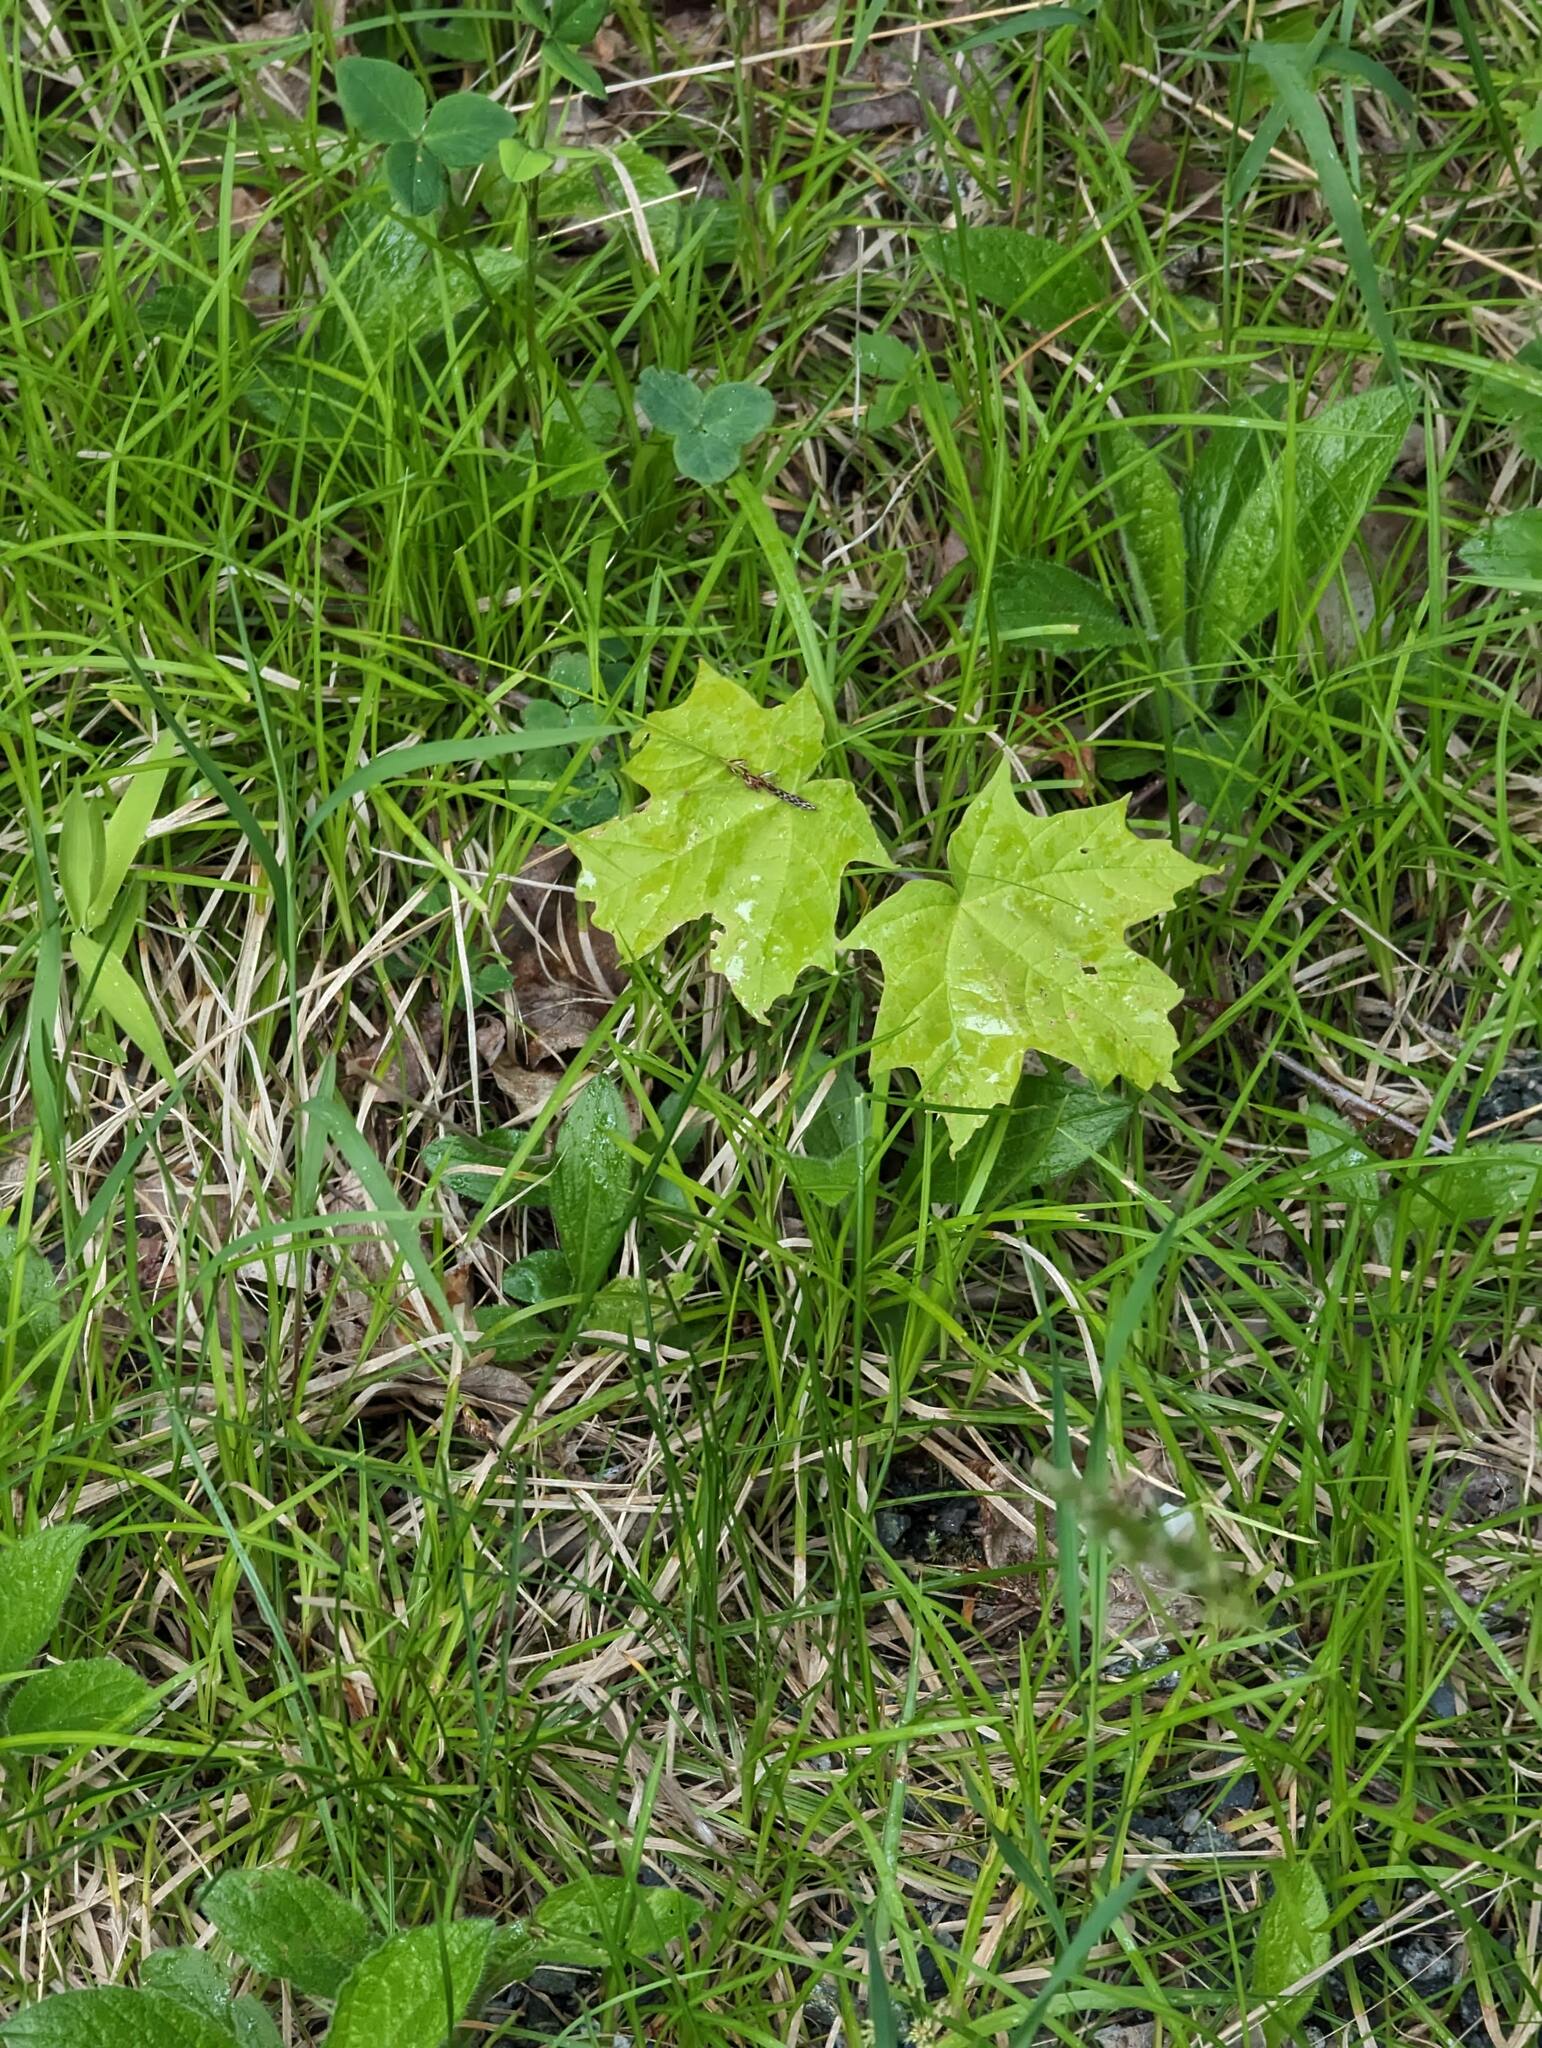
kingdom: Plantae
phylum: Tracheophyta
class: Magnoliopsida
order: Sapindales
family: Sapindaceae
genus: Acer
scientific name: Acer saccharum
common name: Sugar maple
